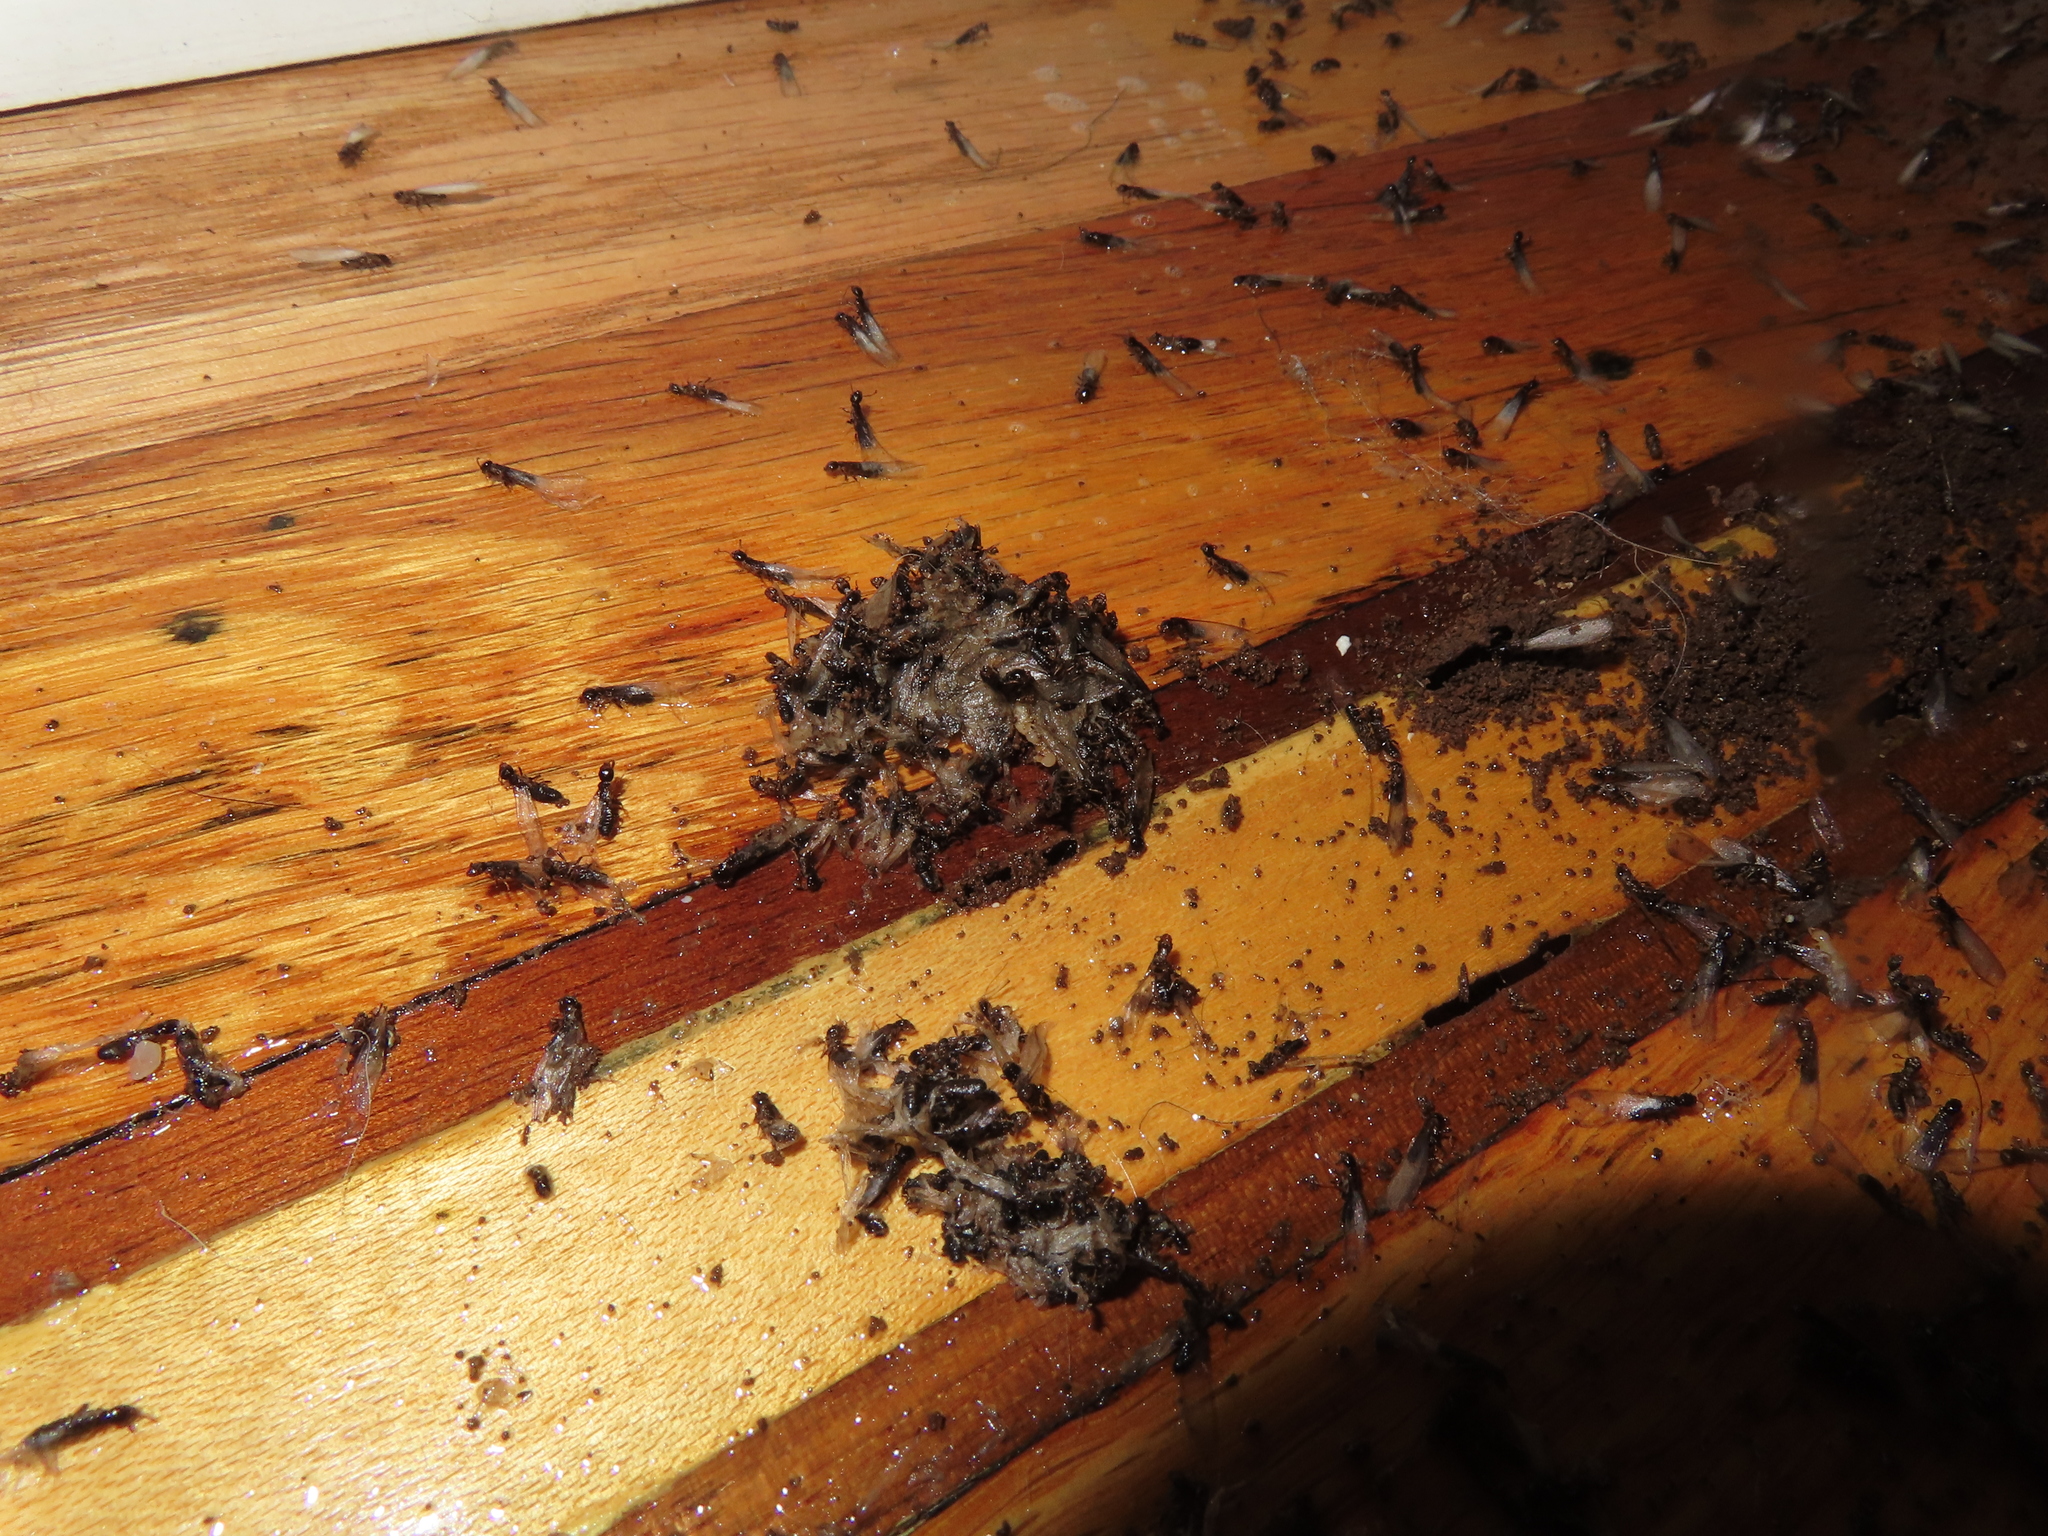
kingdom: Animalia
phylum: Arthropoda
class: Insecta
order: Blattodea
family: Rhinotermitidae
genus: Reticulitermes
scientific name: Reticulitermes flavipes
